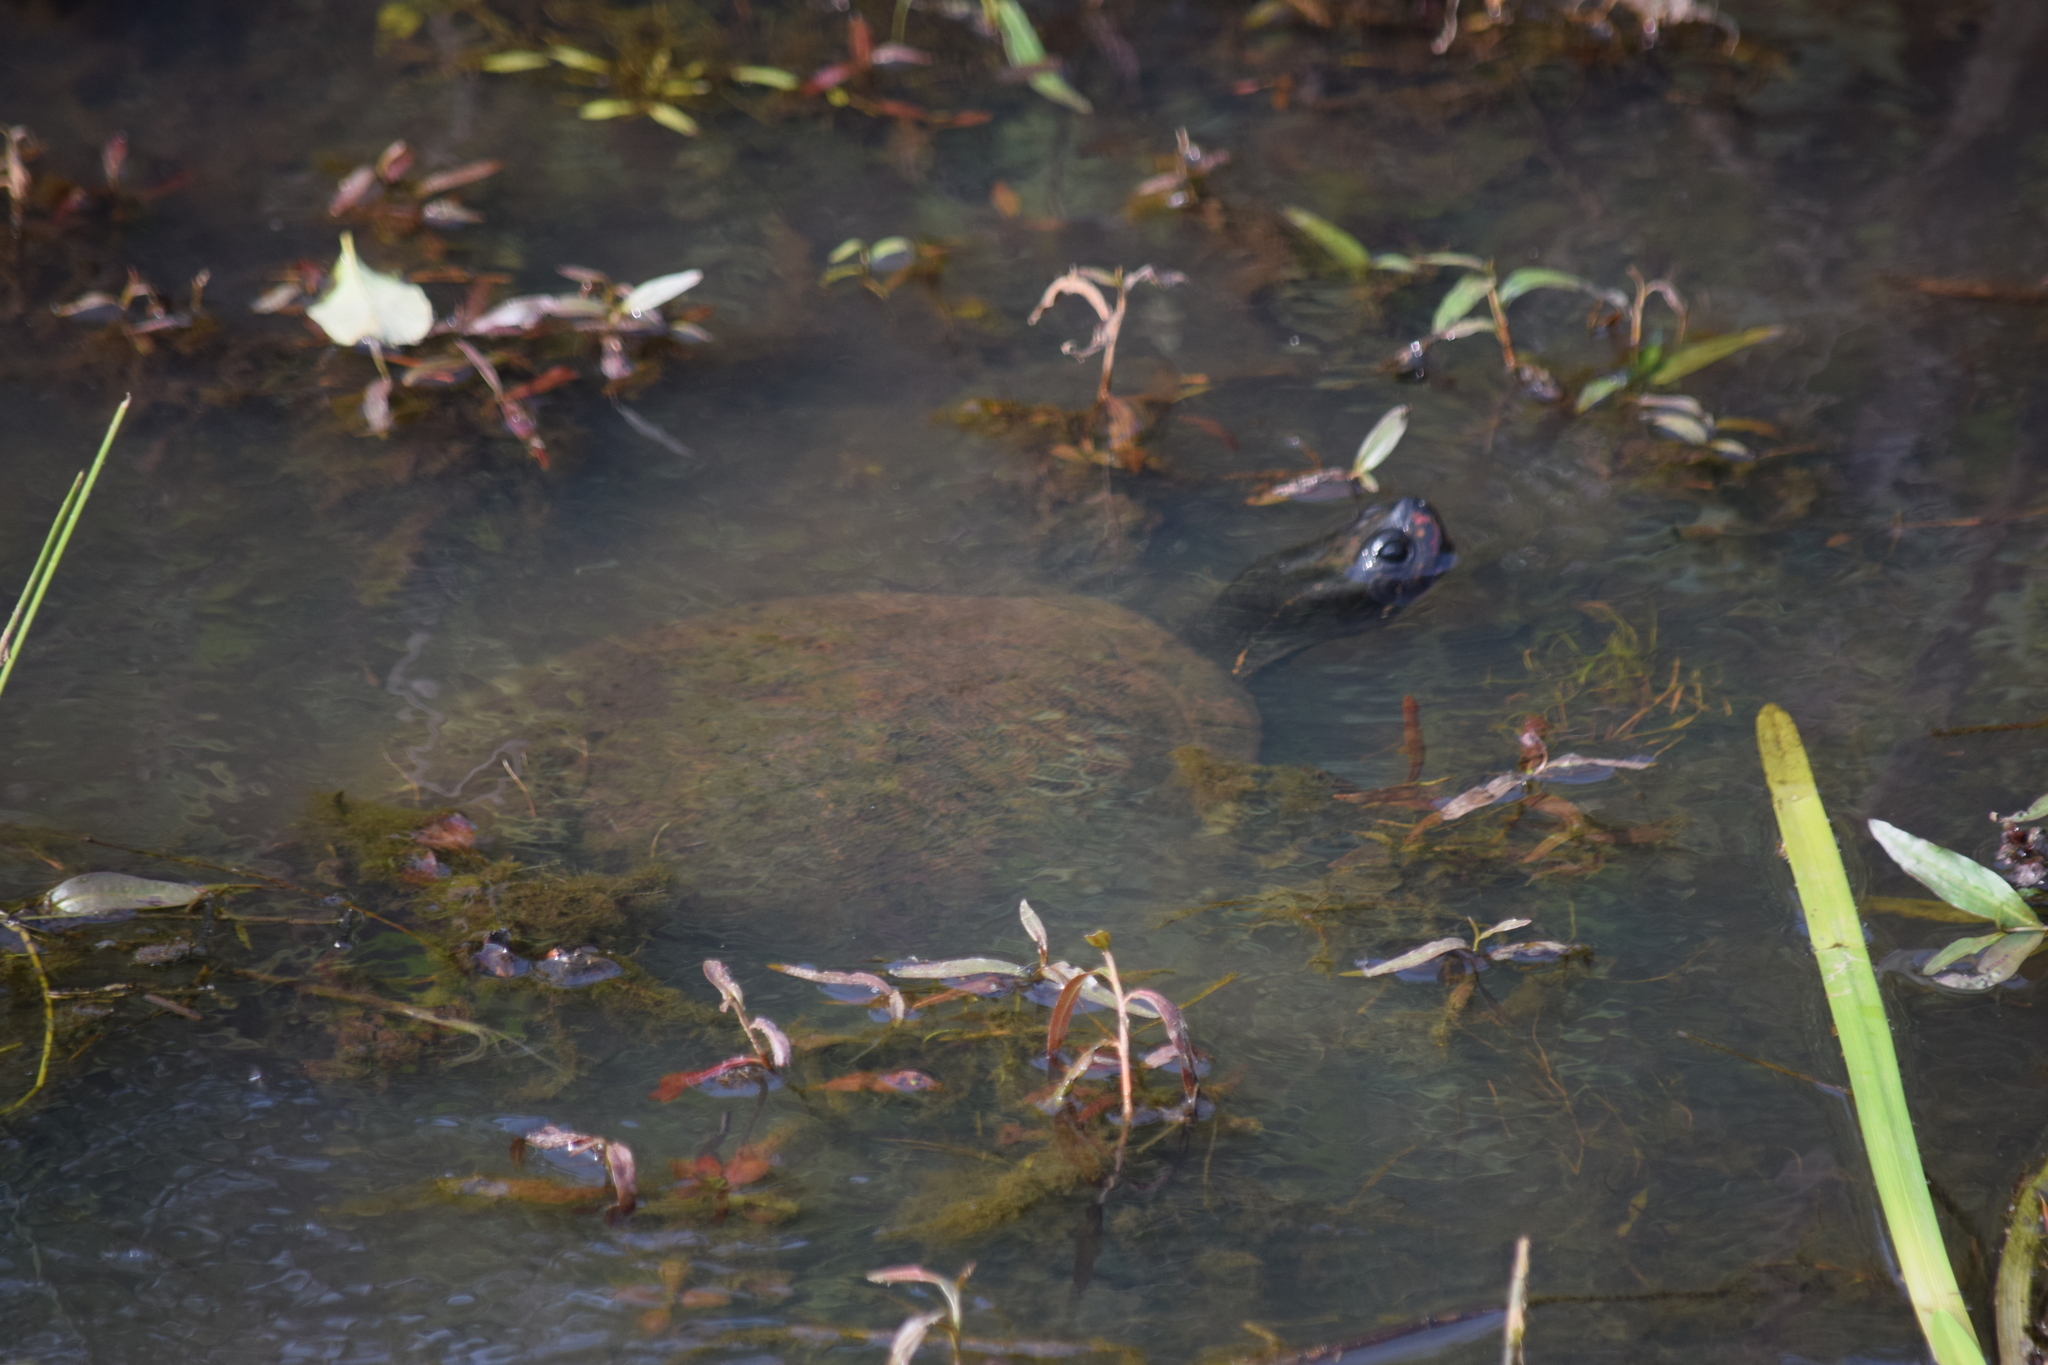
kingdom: Animalia
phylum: Chordata
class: Testudines
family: Emydidae
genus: Pseudemys
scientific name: Pseudemys rubriventris
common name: American red-bellied turtle
